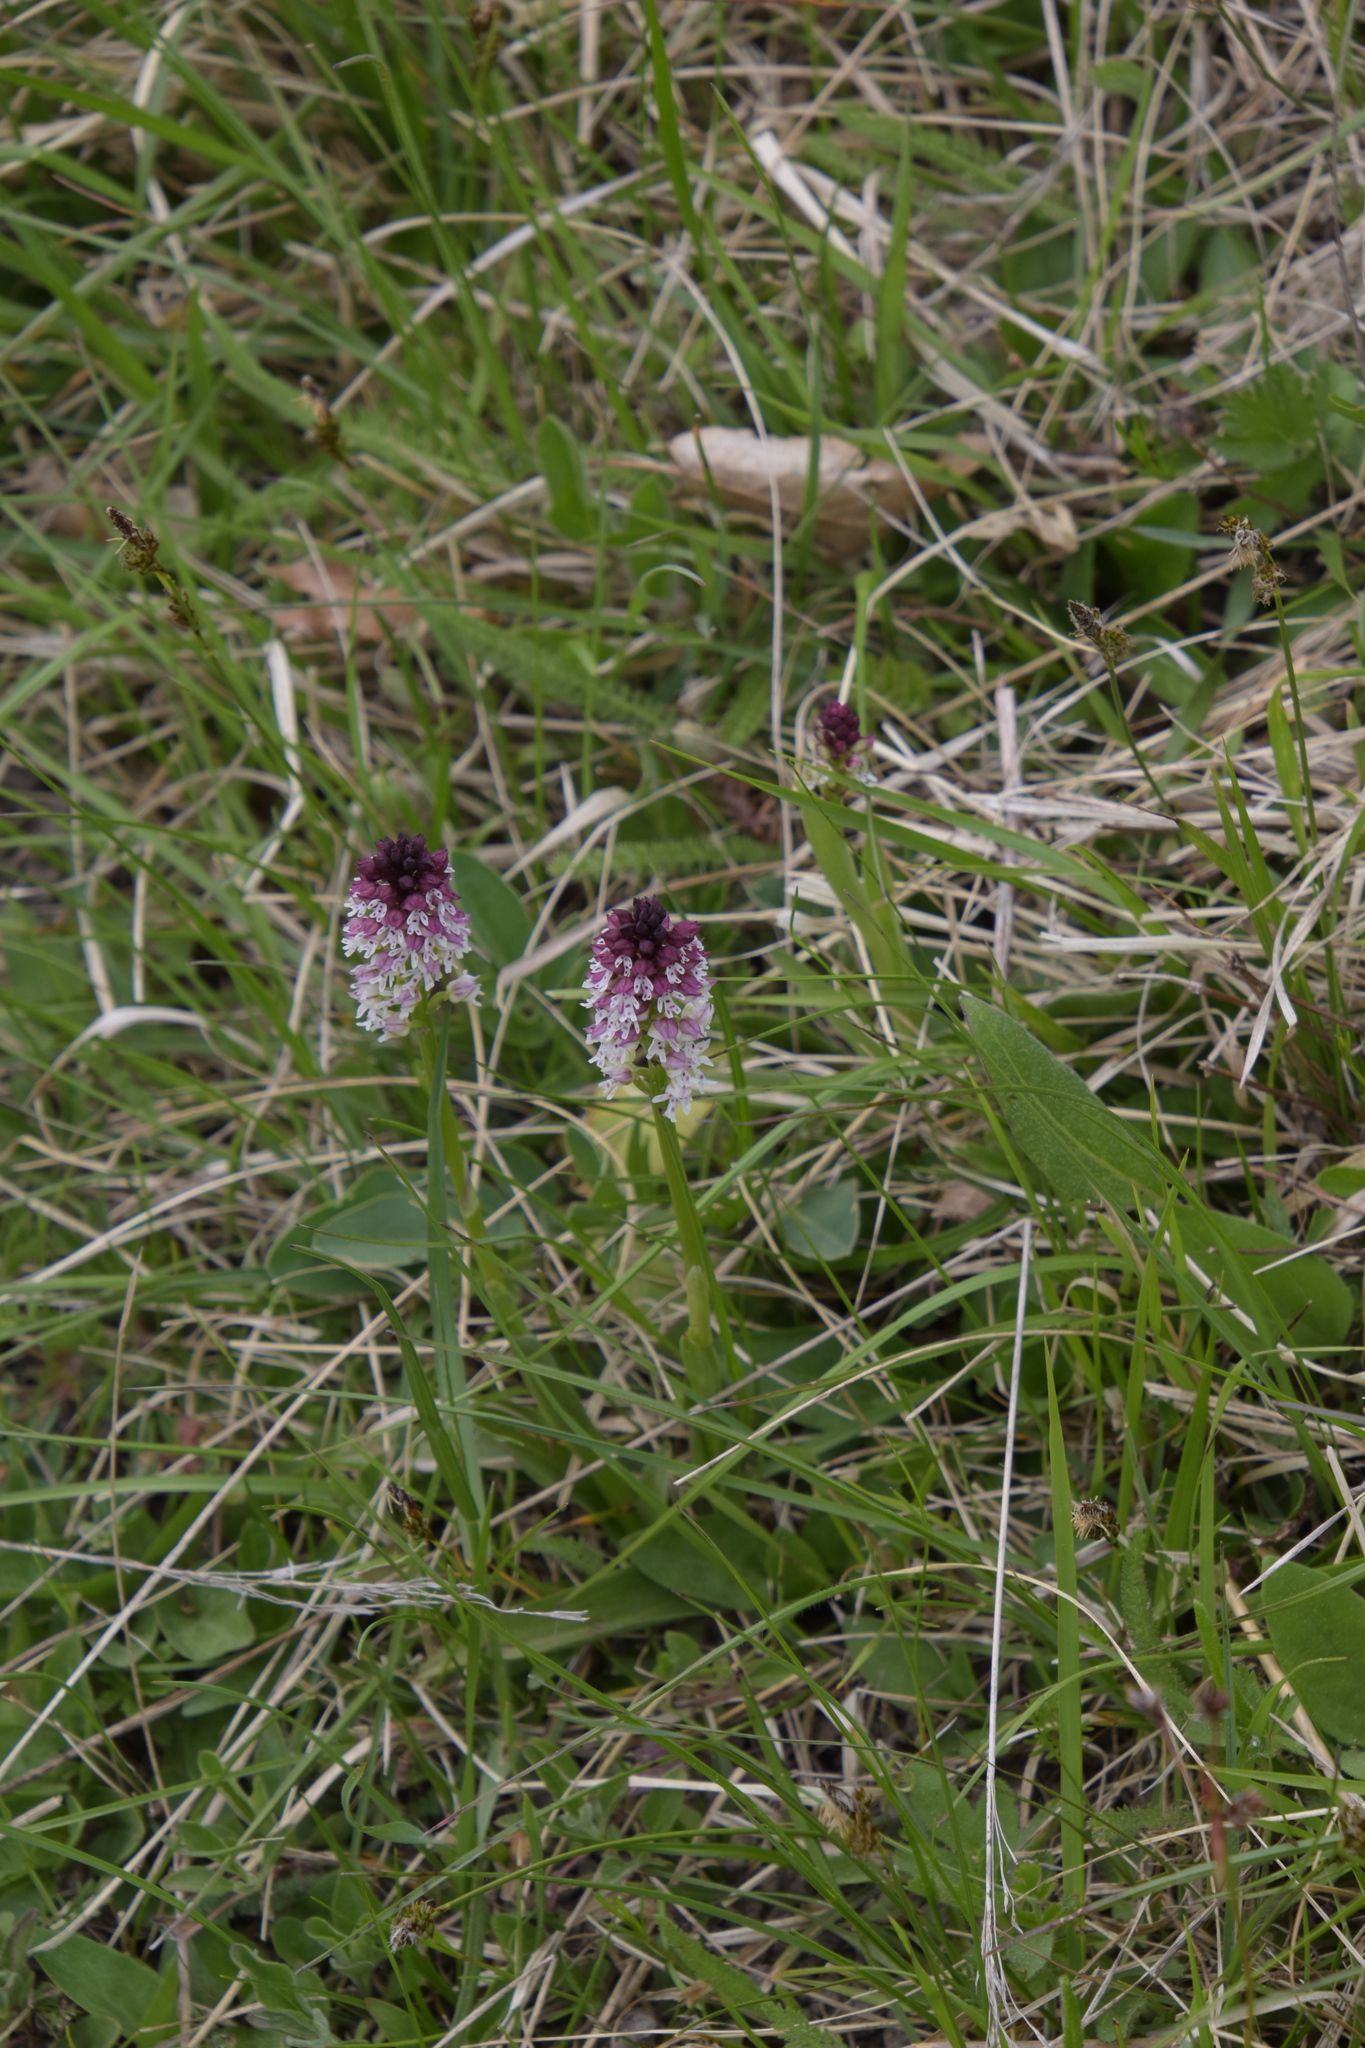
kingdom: Plantae
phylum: Tracheophyta
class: Liliopsida
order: Asparagales
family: Orchidaceae
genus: Neotinea
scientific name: Neotinea ustulata
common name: Burnt orchid
